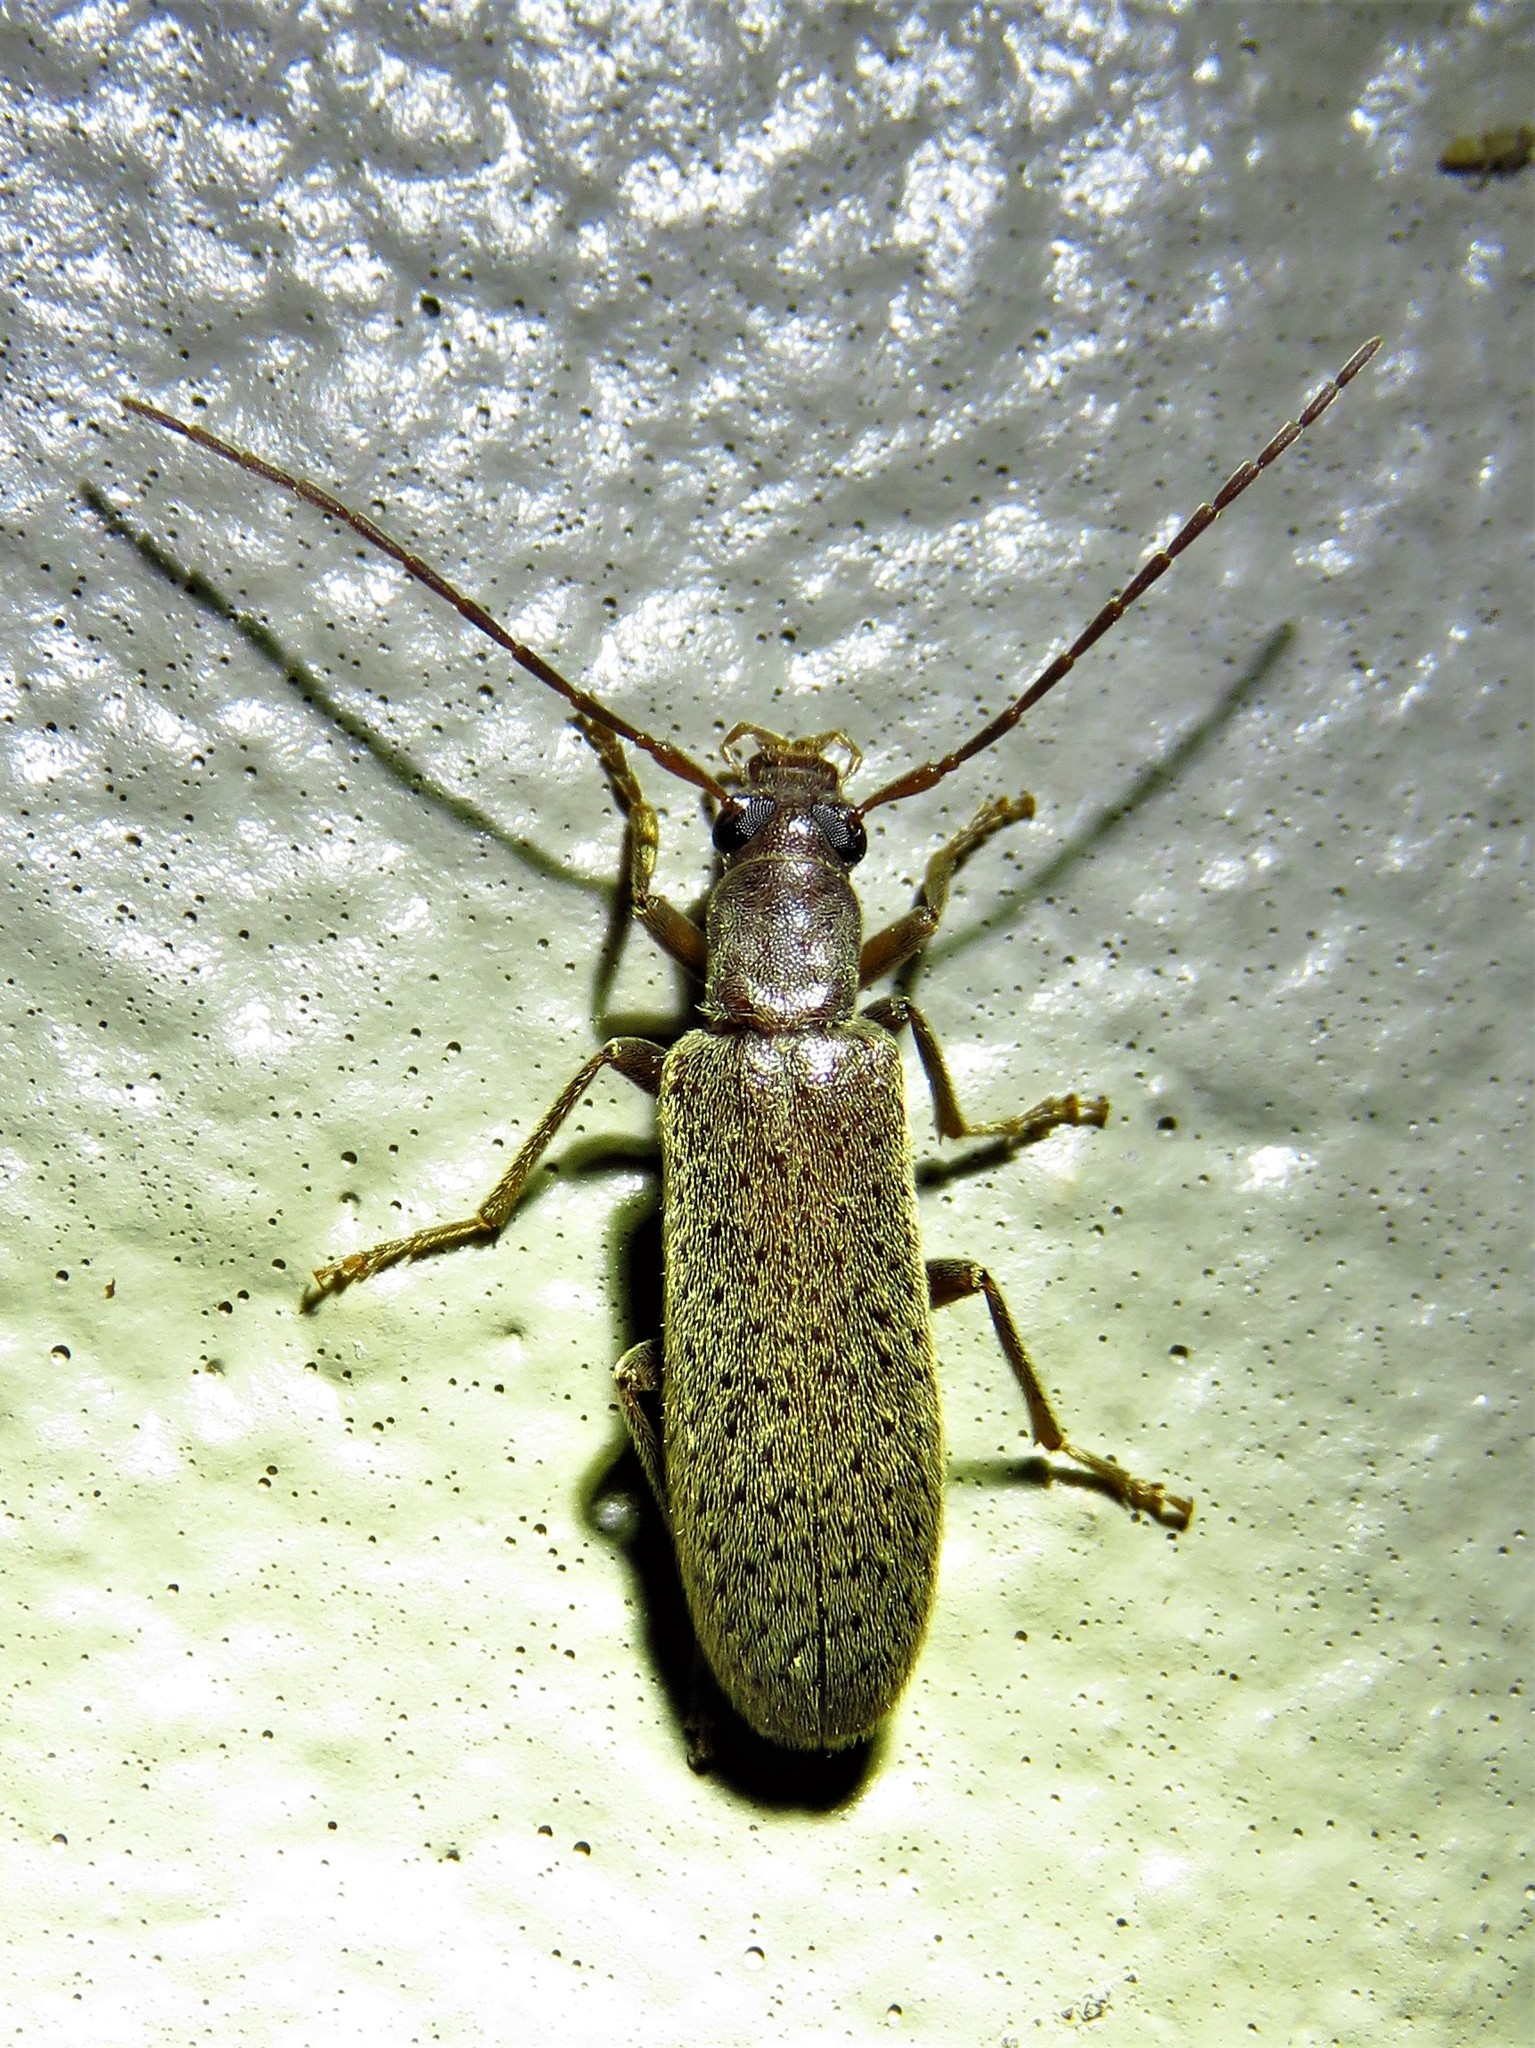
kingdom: Animalia
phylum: Arthropoda
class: Insecta
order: Coleoptera
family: Oedemeridae
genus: Sparedrus
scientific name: Sparedrus aspersus
